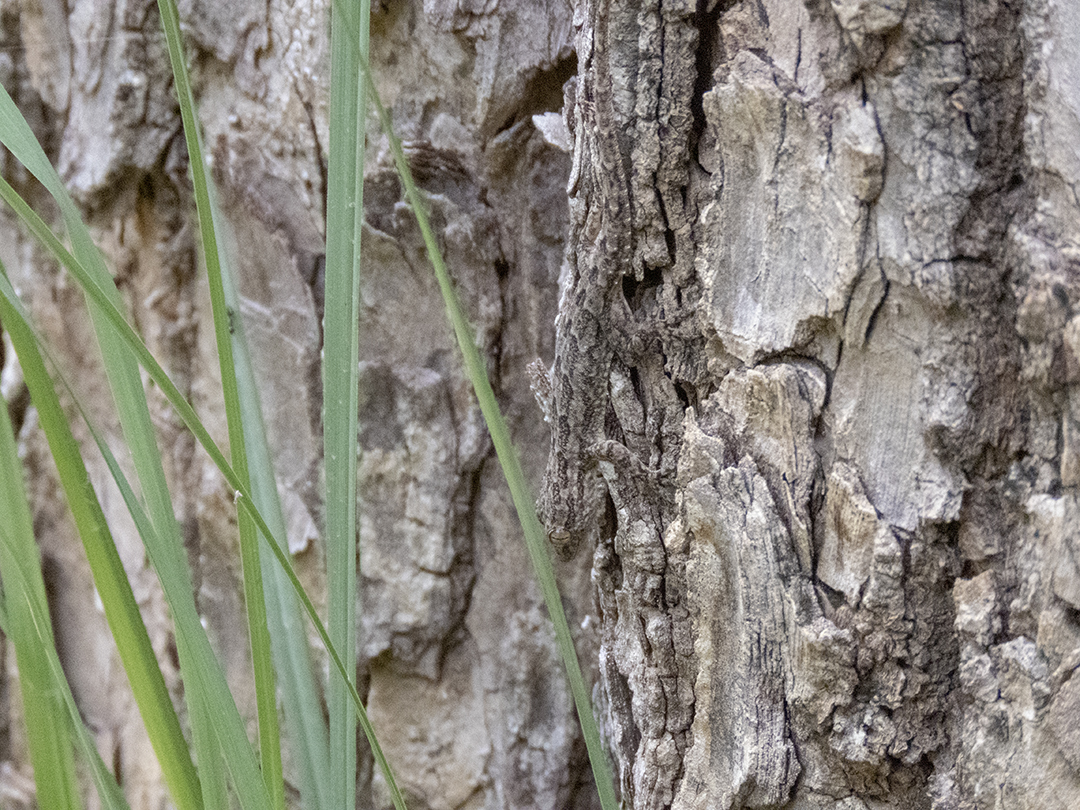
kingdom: Animalia
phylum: Chordata
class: Squamata
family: Gekkonidae
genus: Hemidactylus
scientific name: Hemidactylus flaviviridis
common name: Northern house gecko
